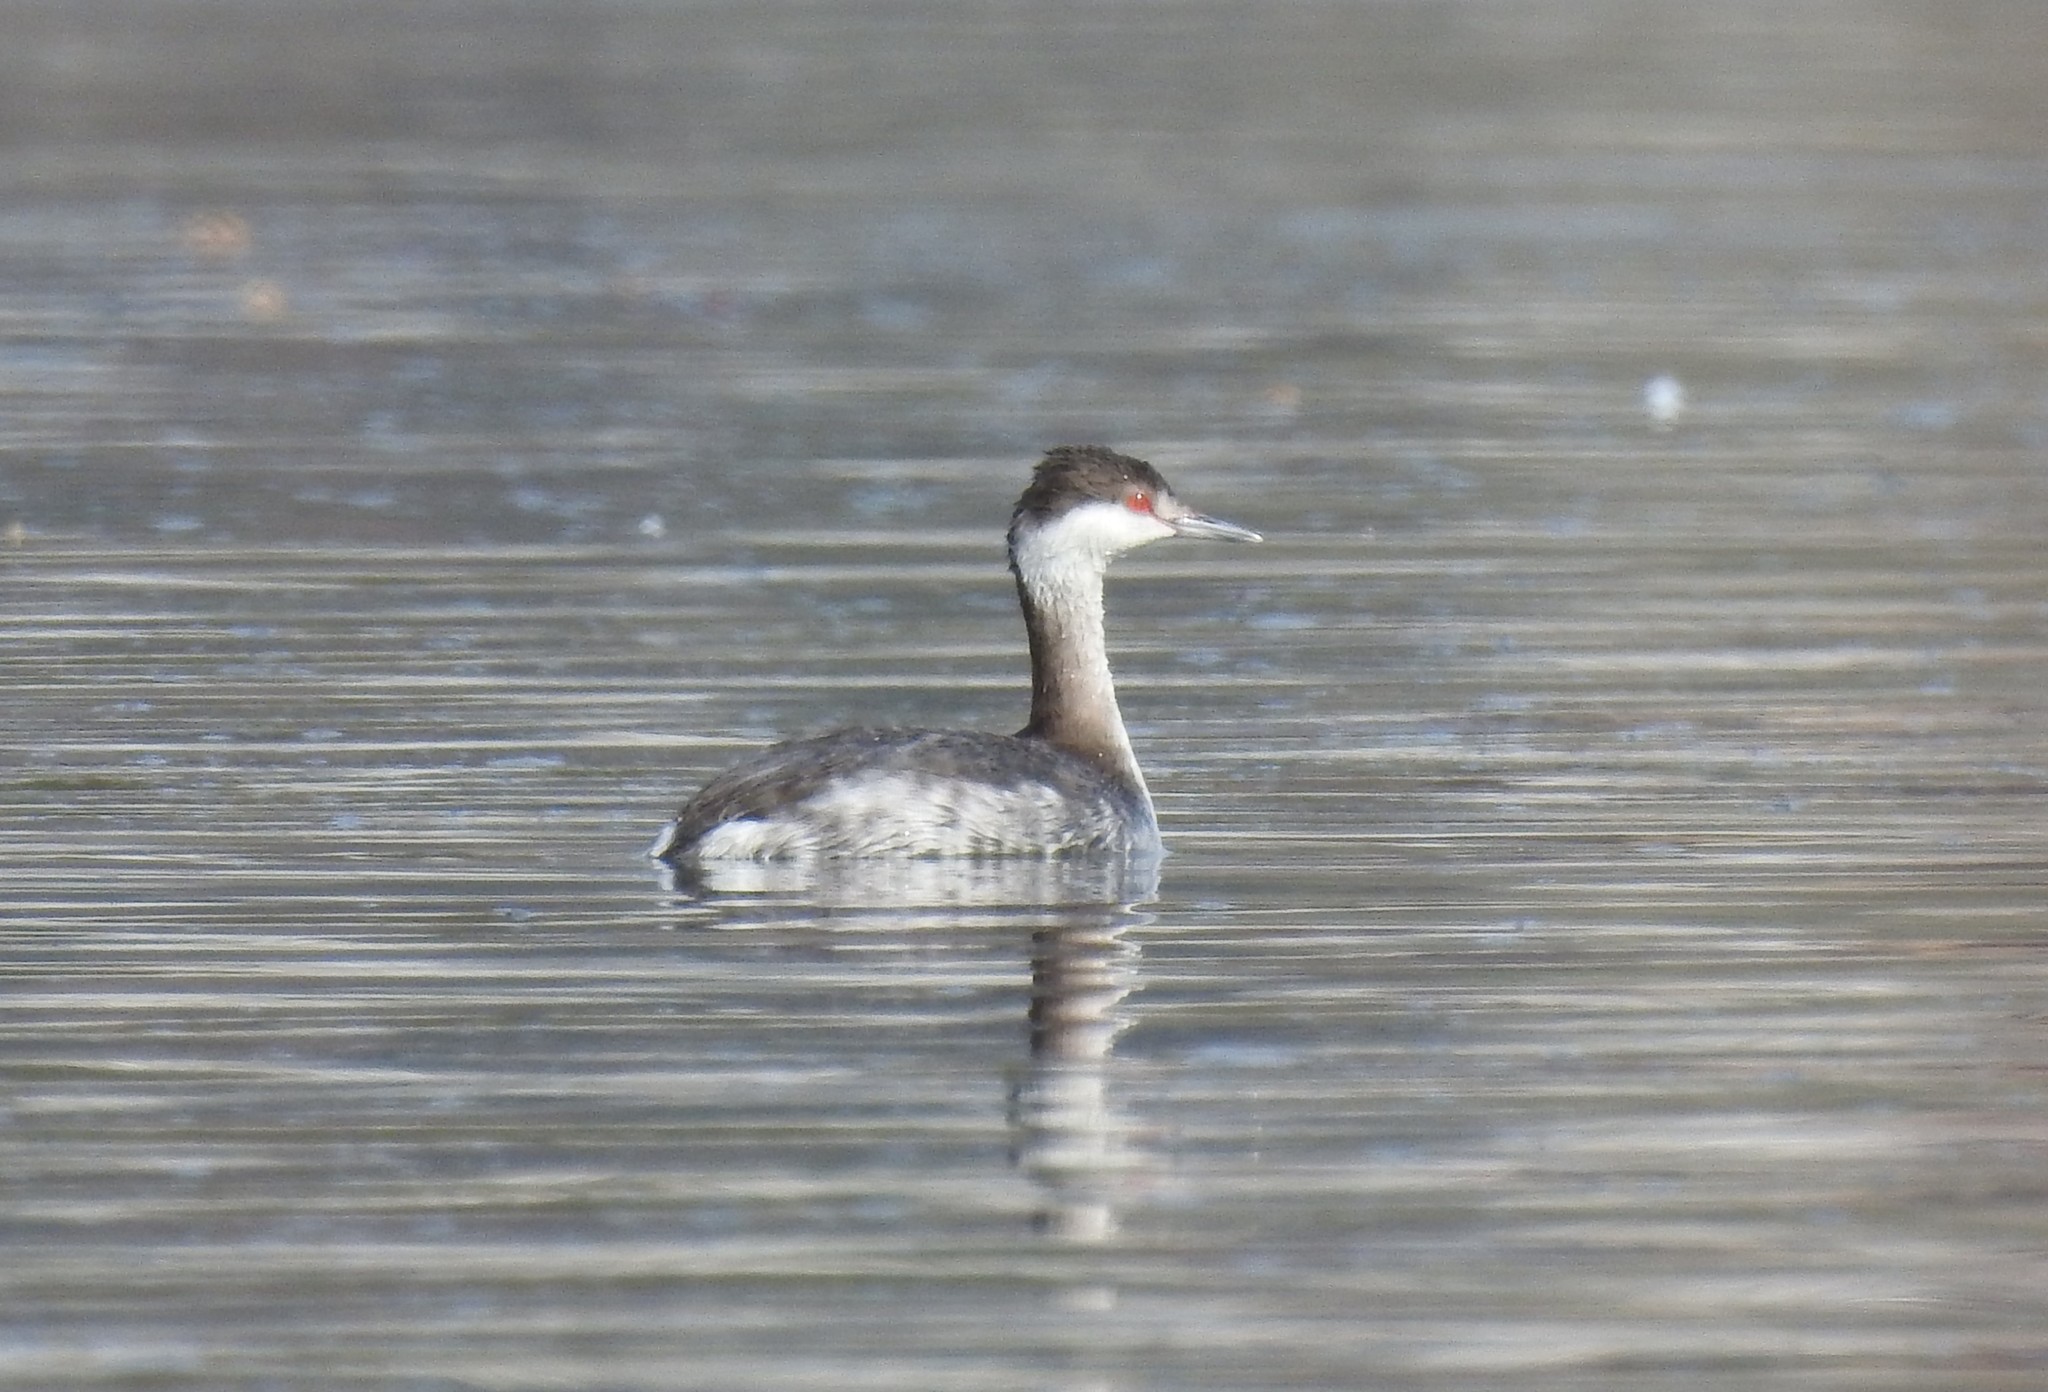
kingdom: Animalia
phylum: Chordata
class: Aves
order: Podicipediformes
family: Podicipedidae
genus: Podiceps
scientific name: Podiceps auritus
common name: Horned grebe
